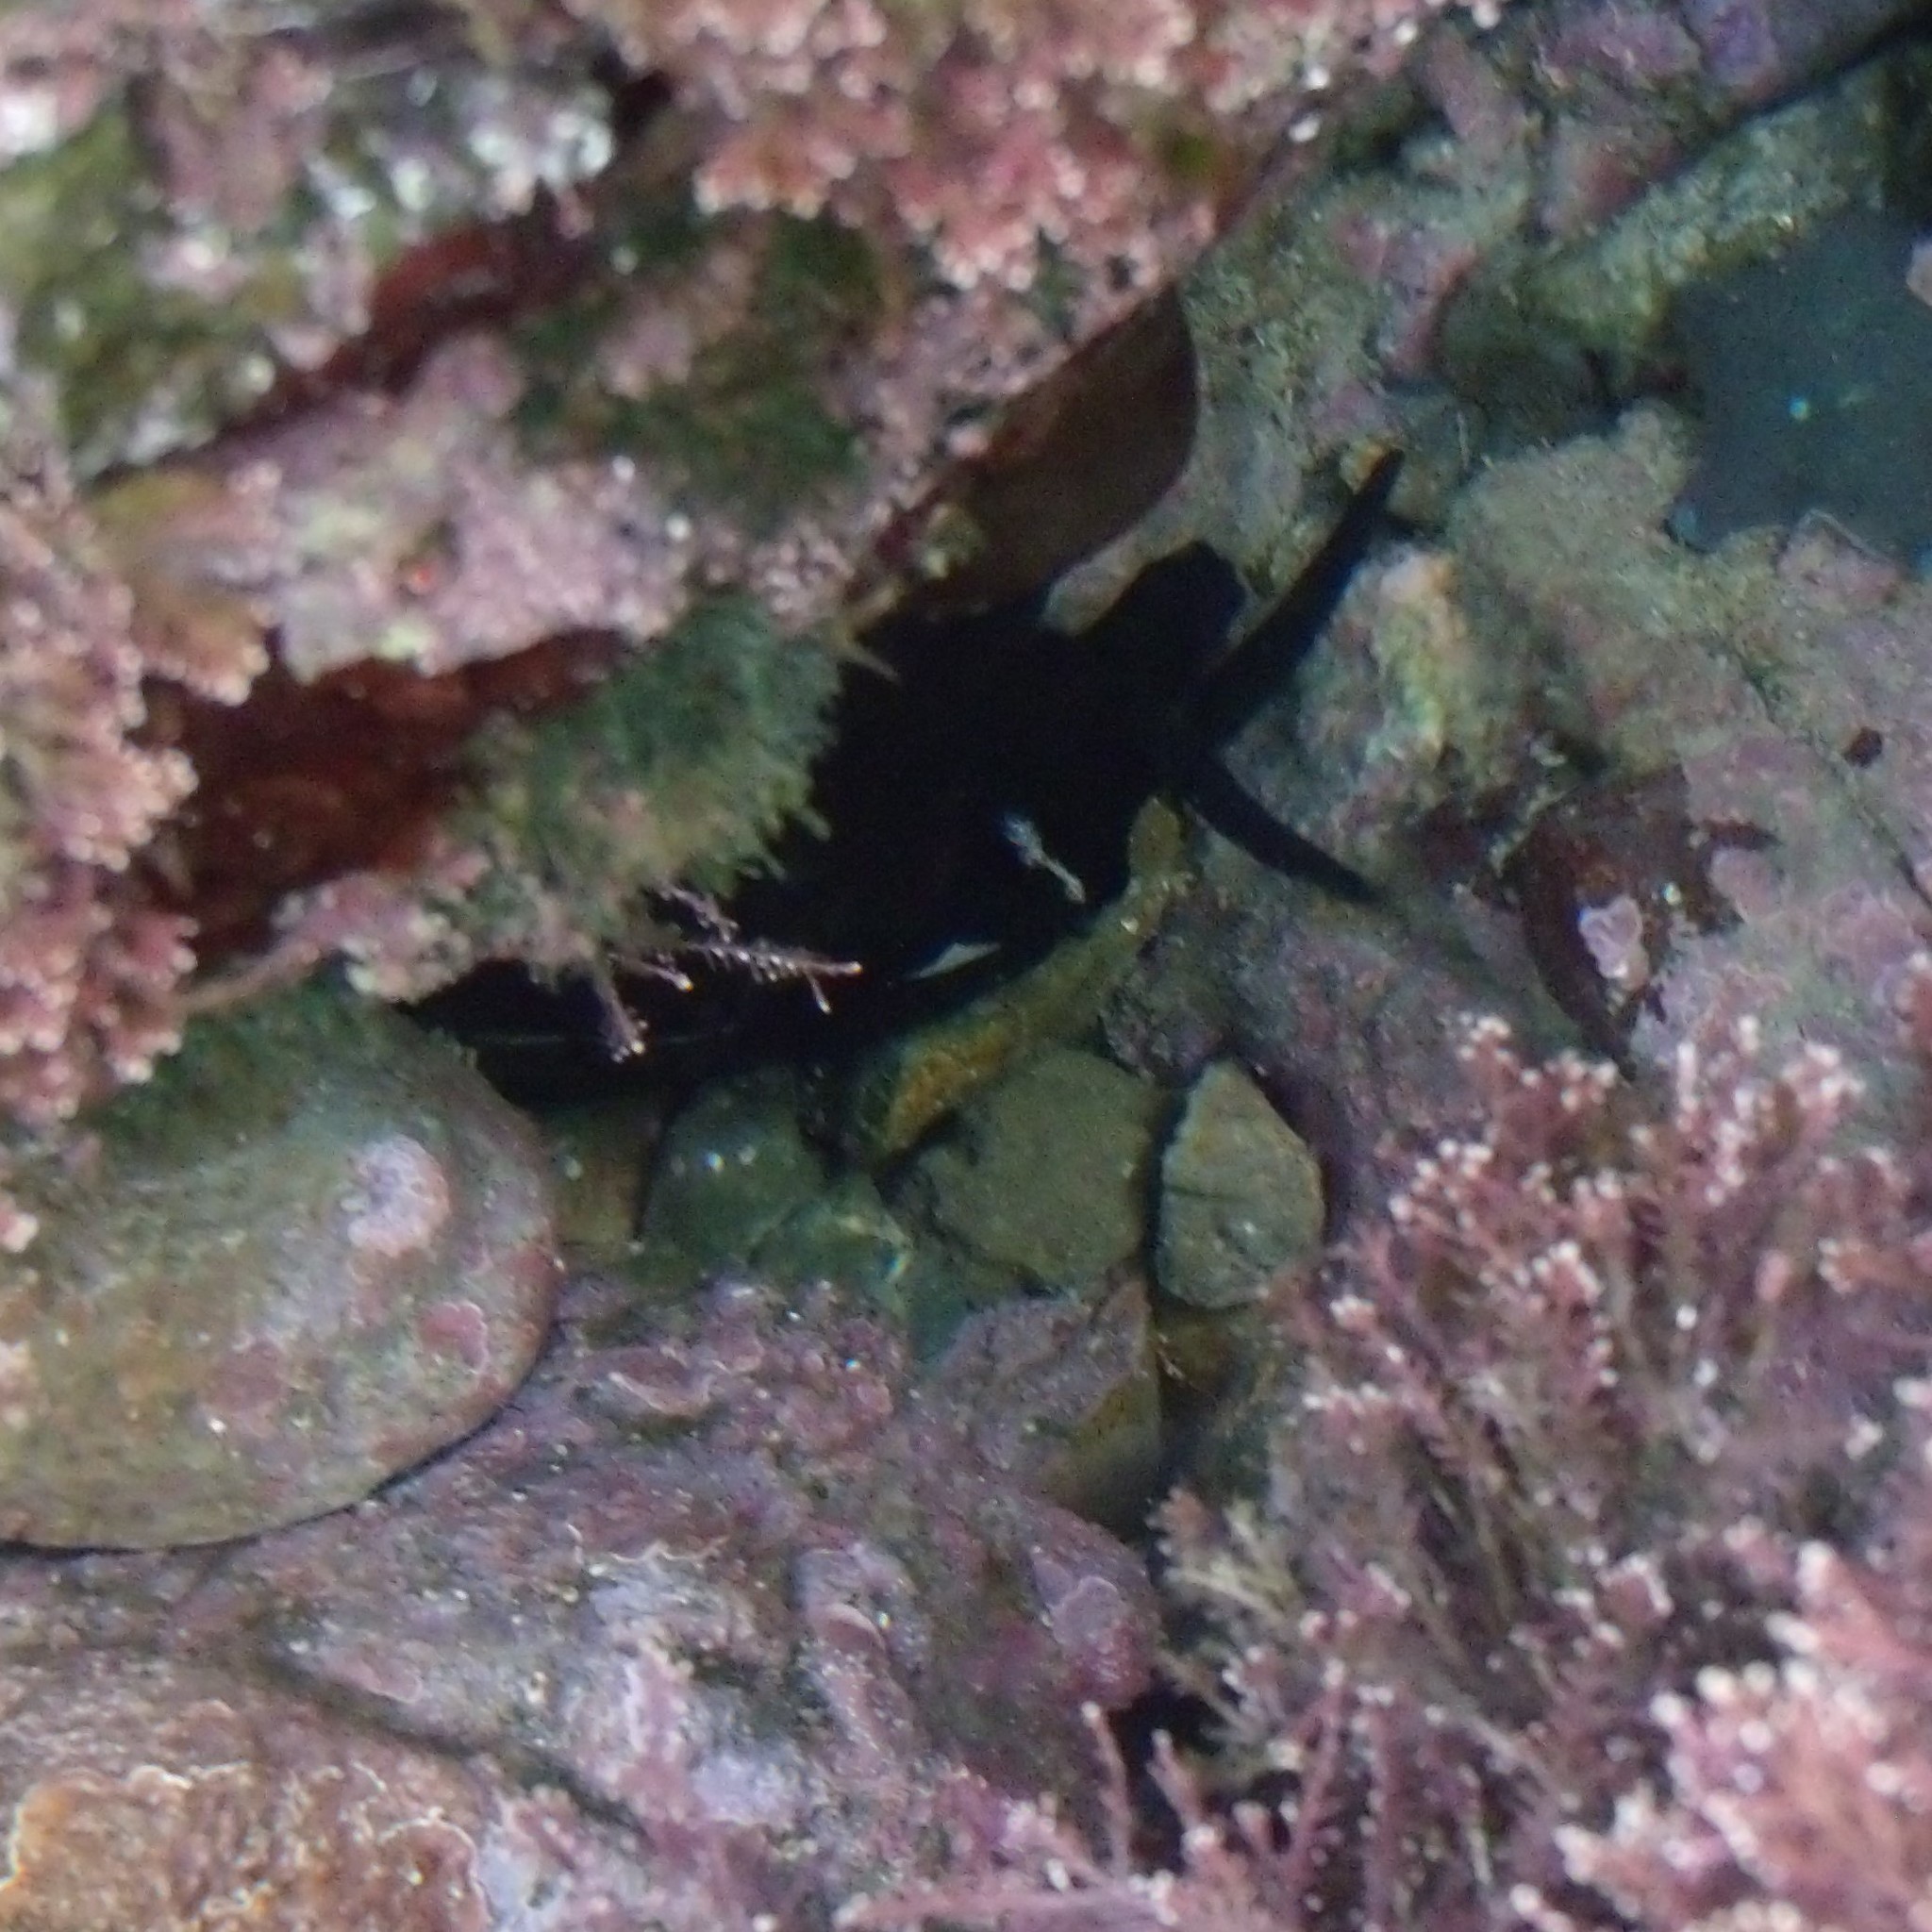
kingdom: Animalia
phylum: Mollusca
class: Gastropoda
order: Lepetellida
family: Fissurellidae
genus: Scutus
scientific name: Scutus breviculus
